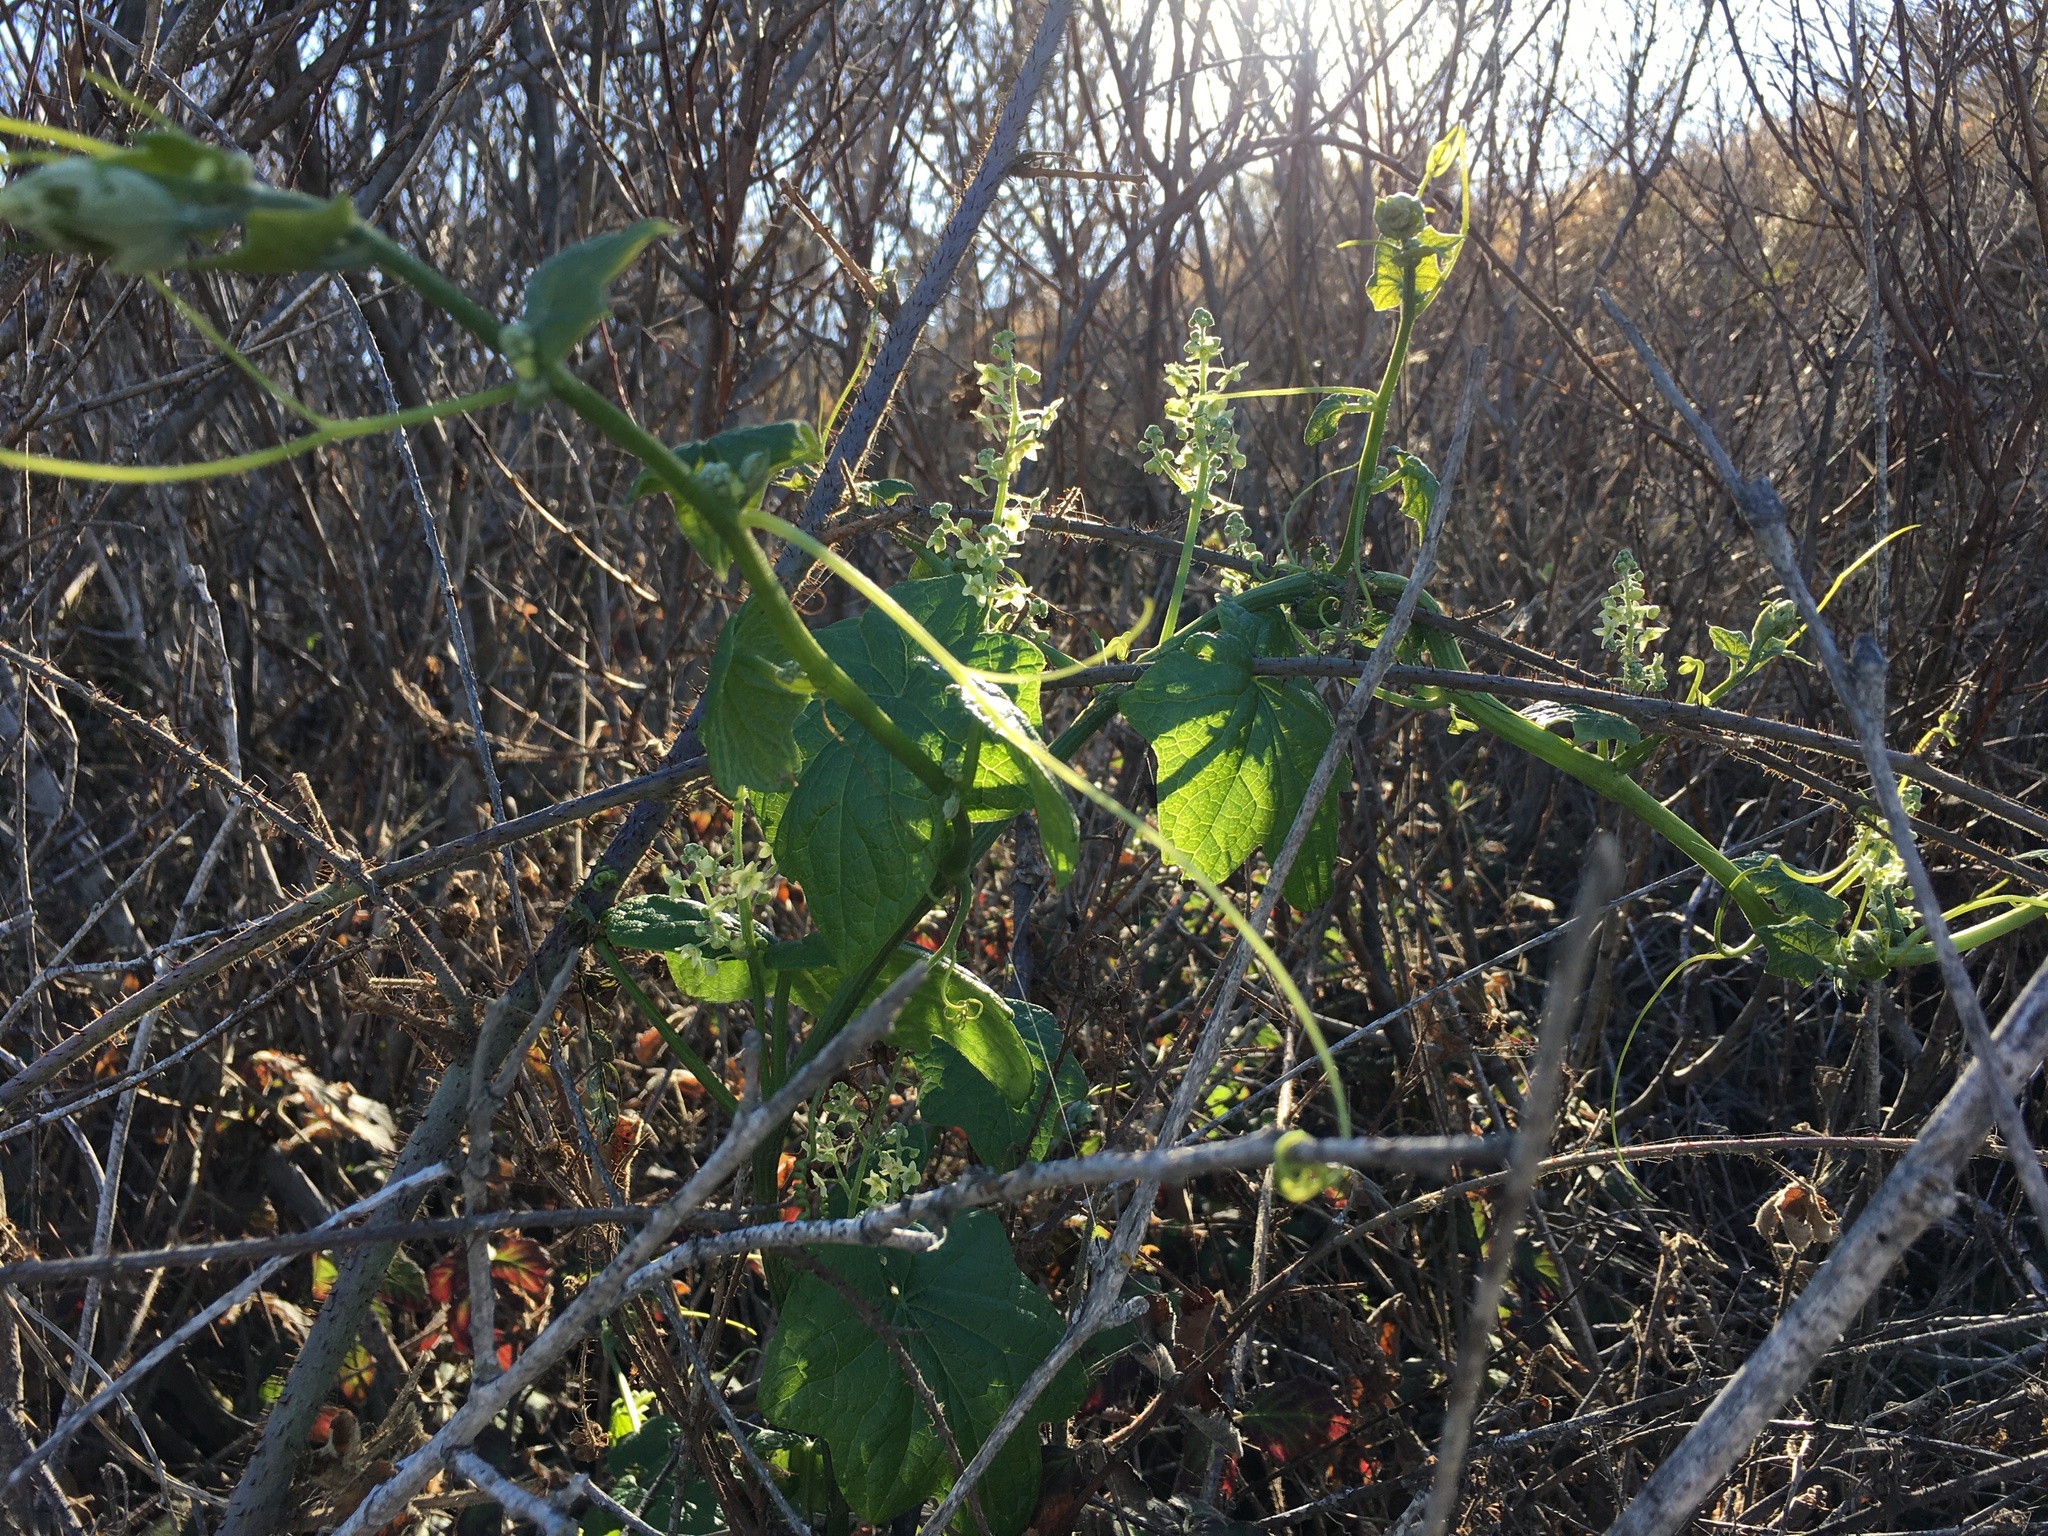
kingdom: Plantae
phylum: Tracheophyta
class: Magnoliopsida
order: Cucurbitales
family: Cucurbitaceae
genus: Marah
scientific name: Marah fabacea
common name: California manroot
